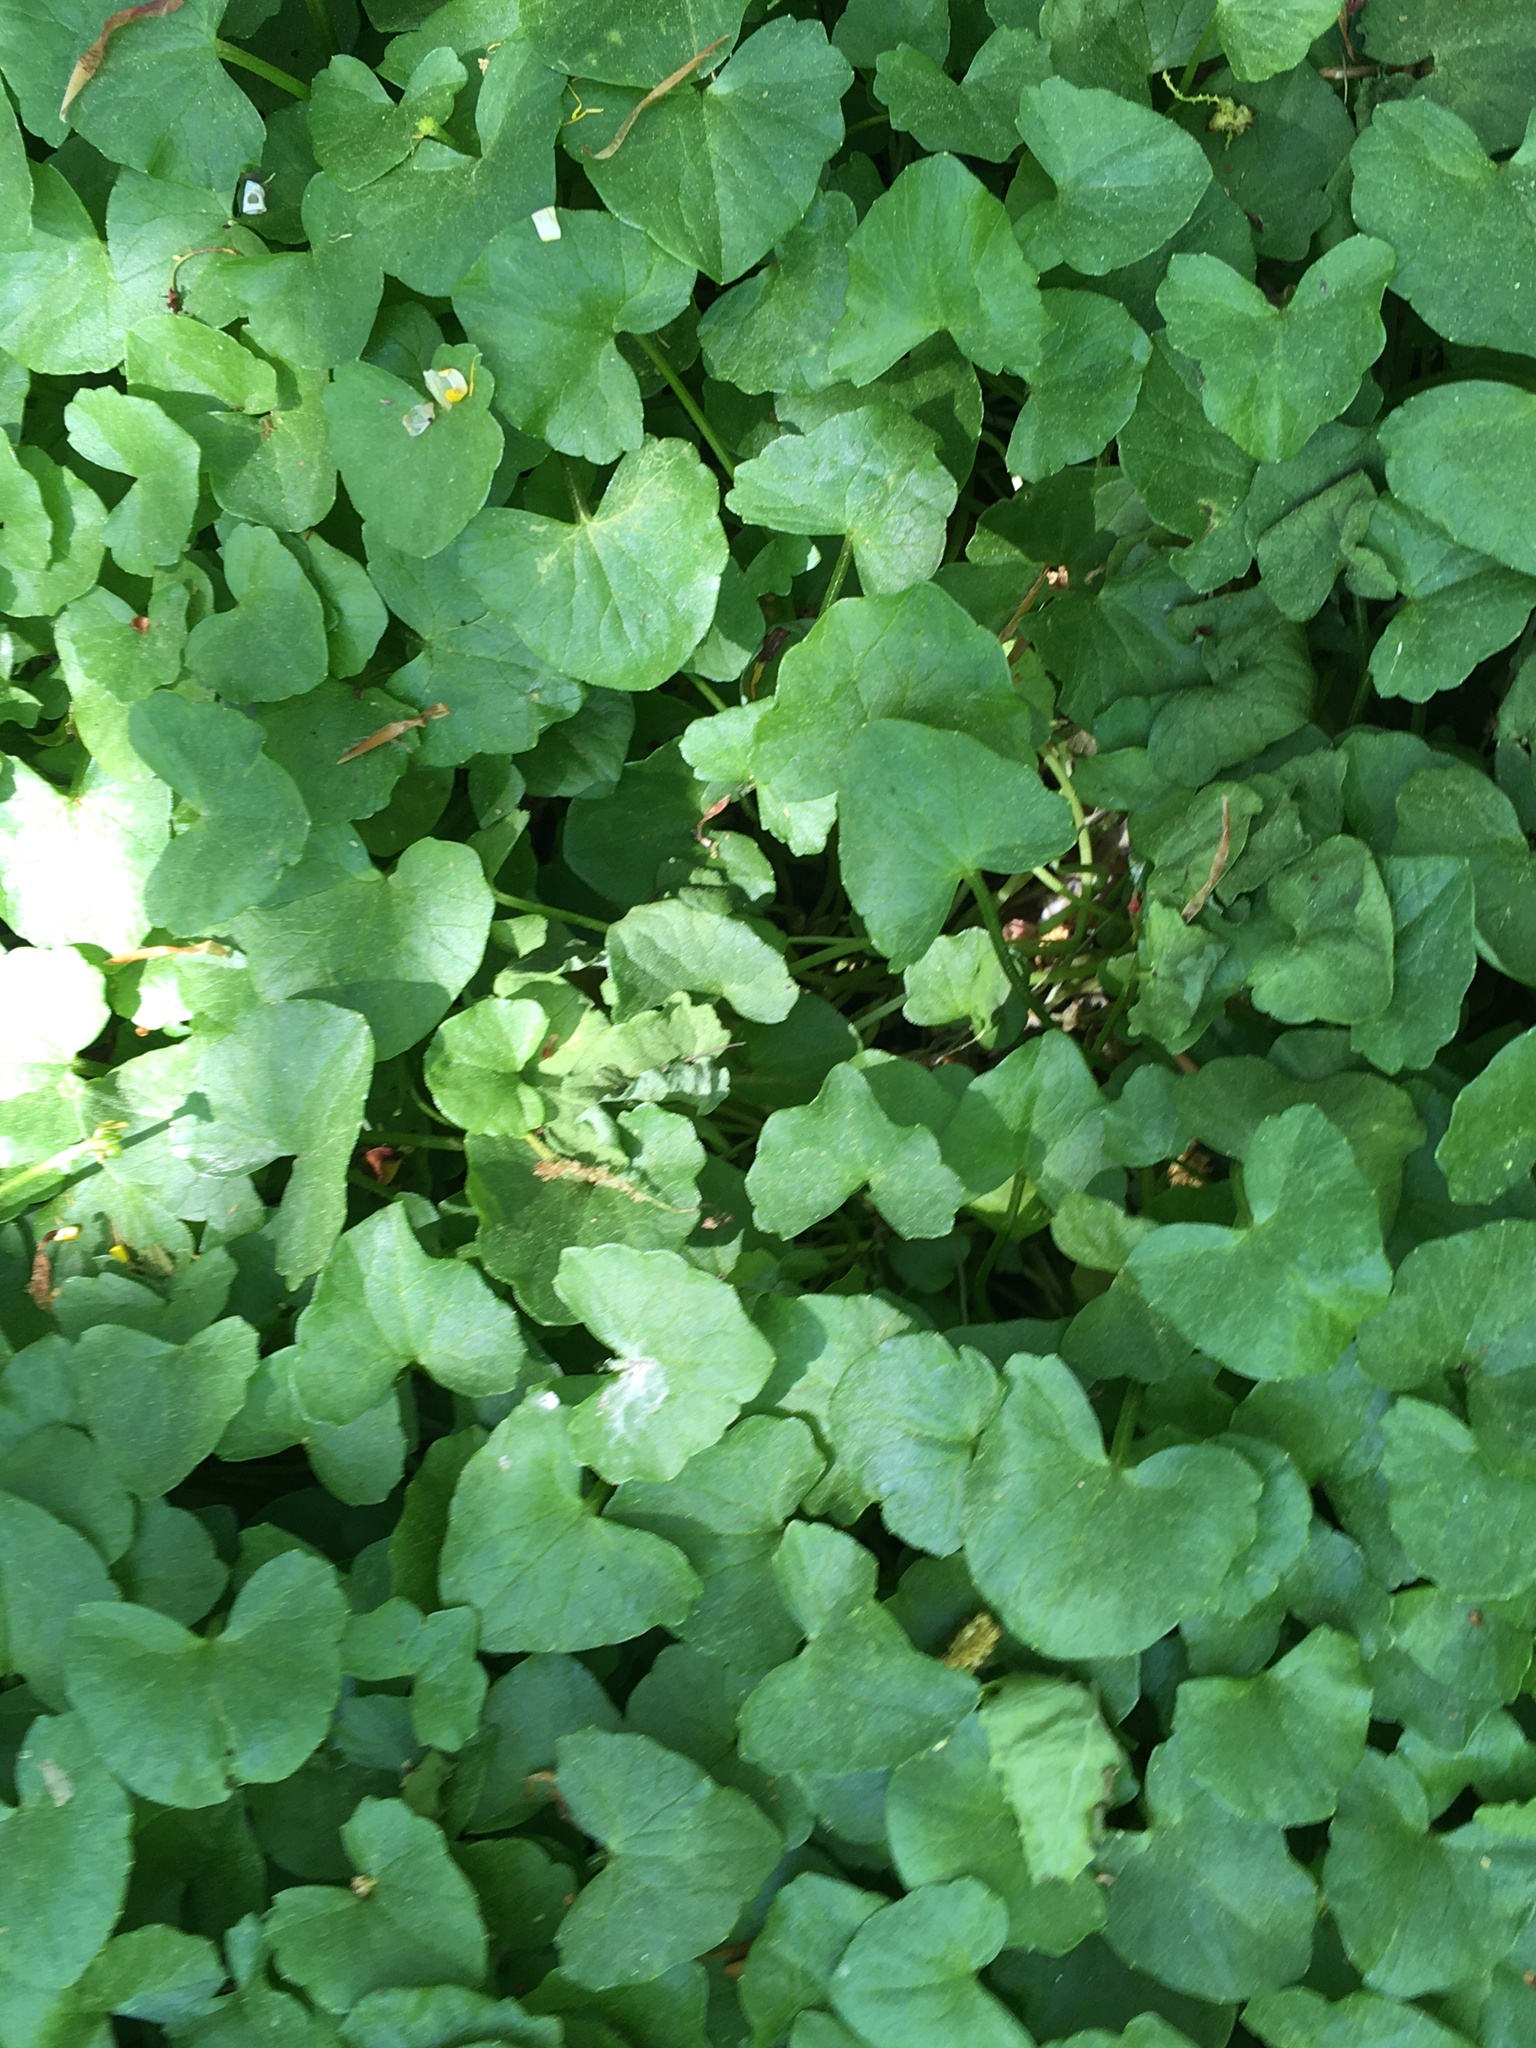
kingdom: Plantae
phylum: Tracheophyta
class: Magnoliopsida
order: Ranunculales
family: Ranunculaceae
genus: Ficaria
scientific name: Ficaria verna
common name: Lesser celandine
